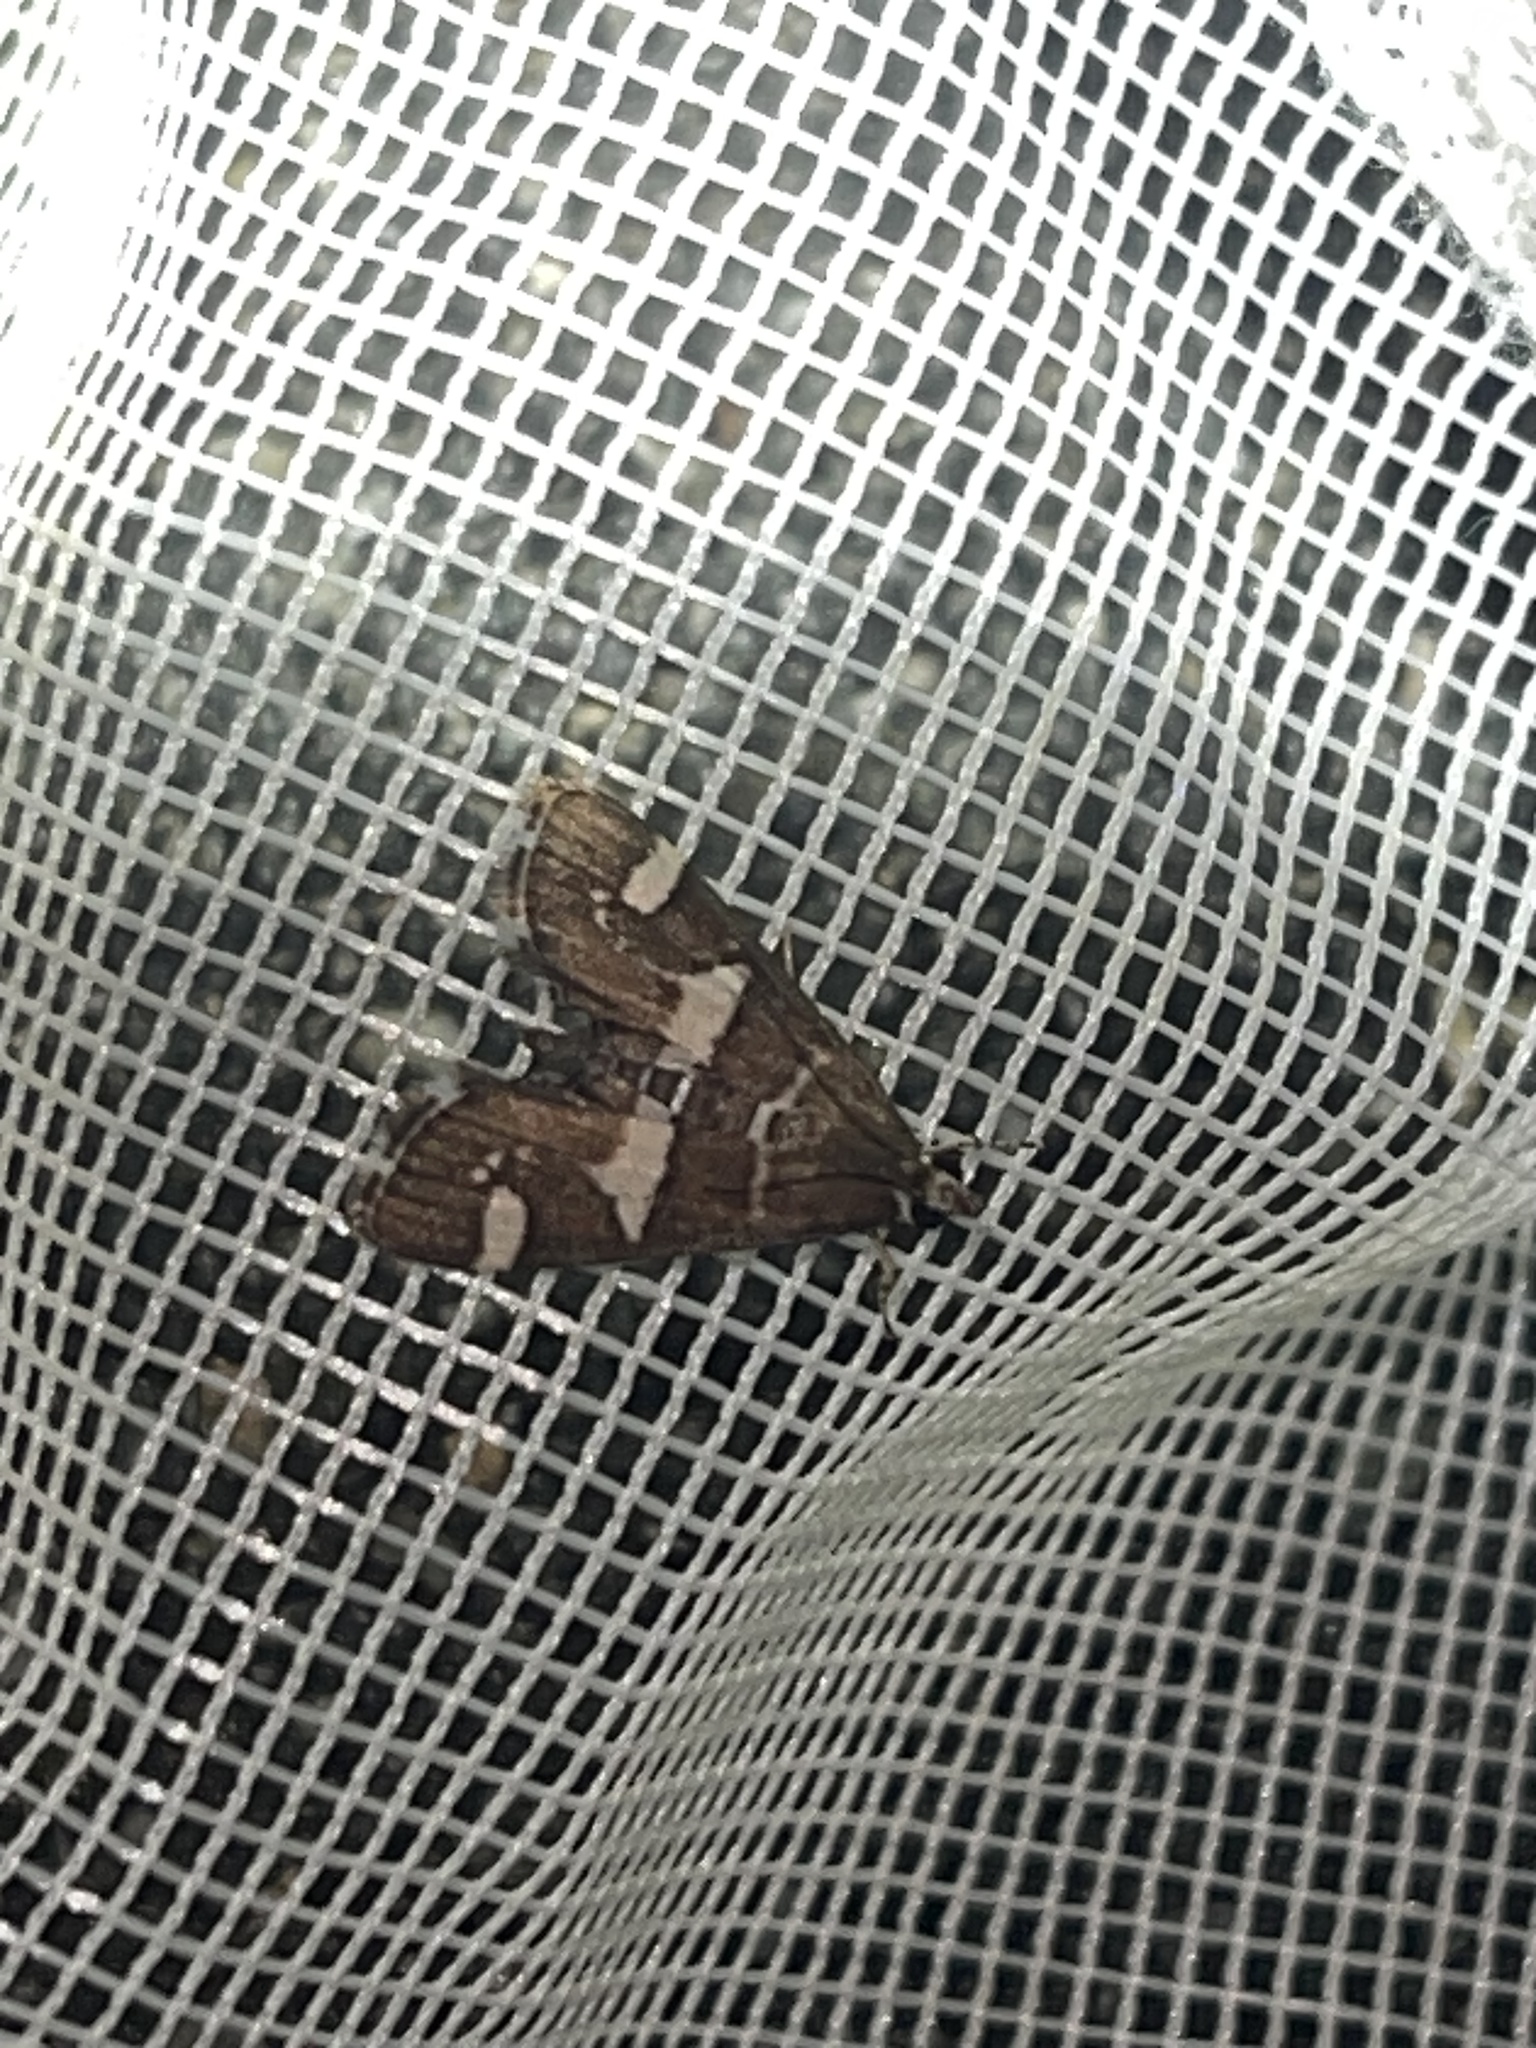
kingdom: Animalia
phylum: Arthropoda
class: Insecta
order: Lepidoptera
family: Crambidae
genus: Spoladea
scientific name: Spoladea recurvalis
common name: Beet webworm moth
